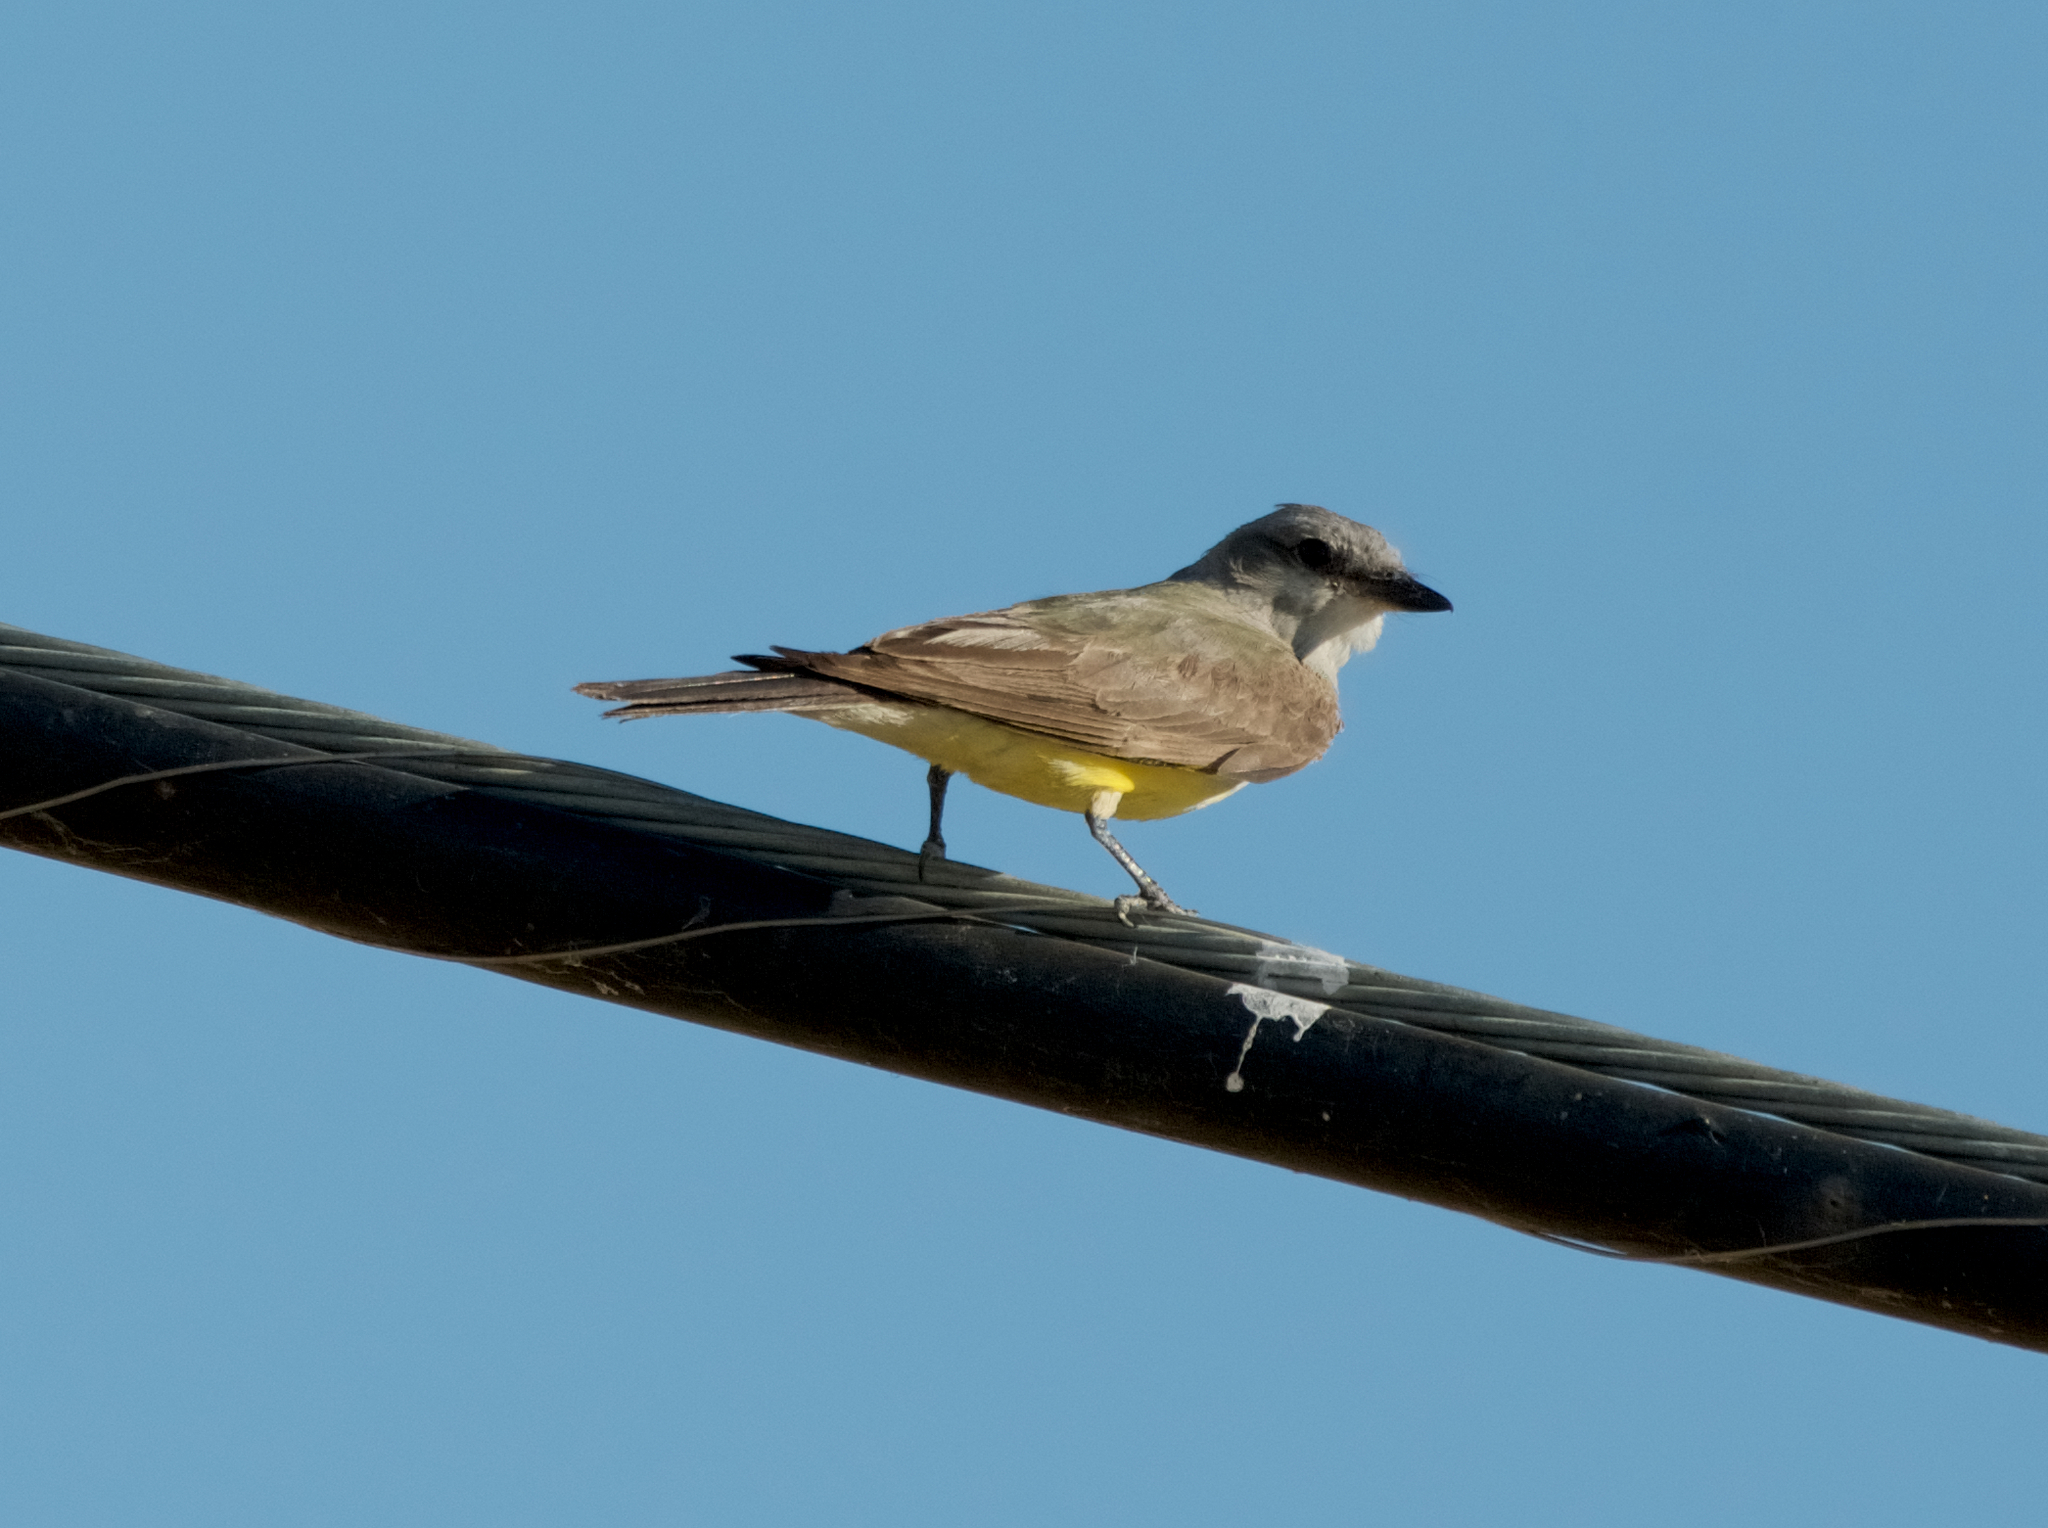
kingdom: Animalia
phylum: Chordata
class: Aves
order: Passeriformes
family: Tyrannidae
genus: Tyrannus
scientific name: Tyrannus verticalis
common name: Western kingbird
